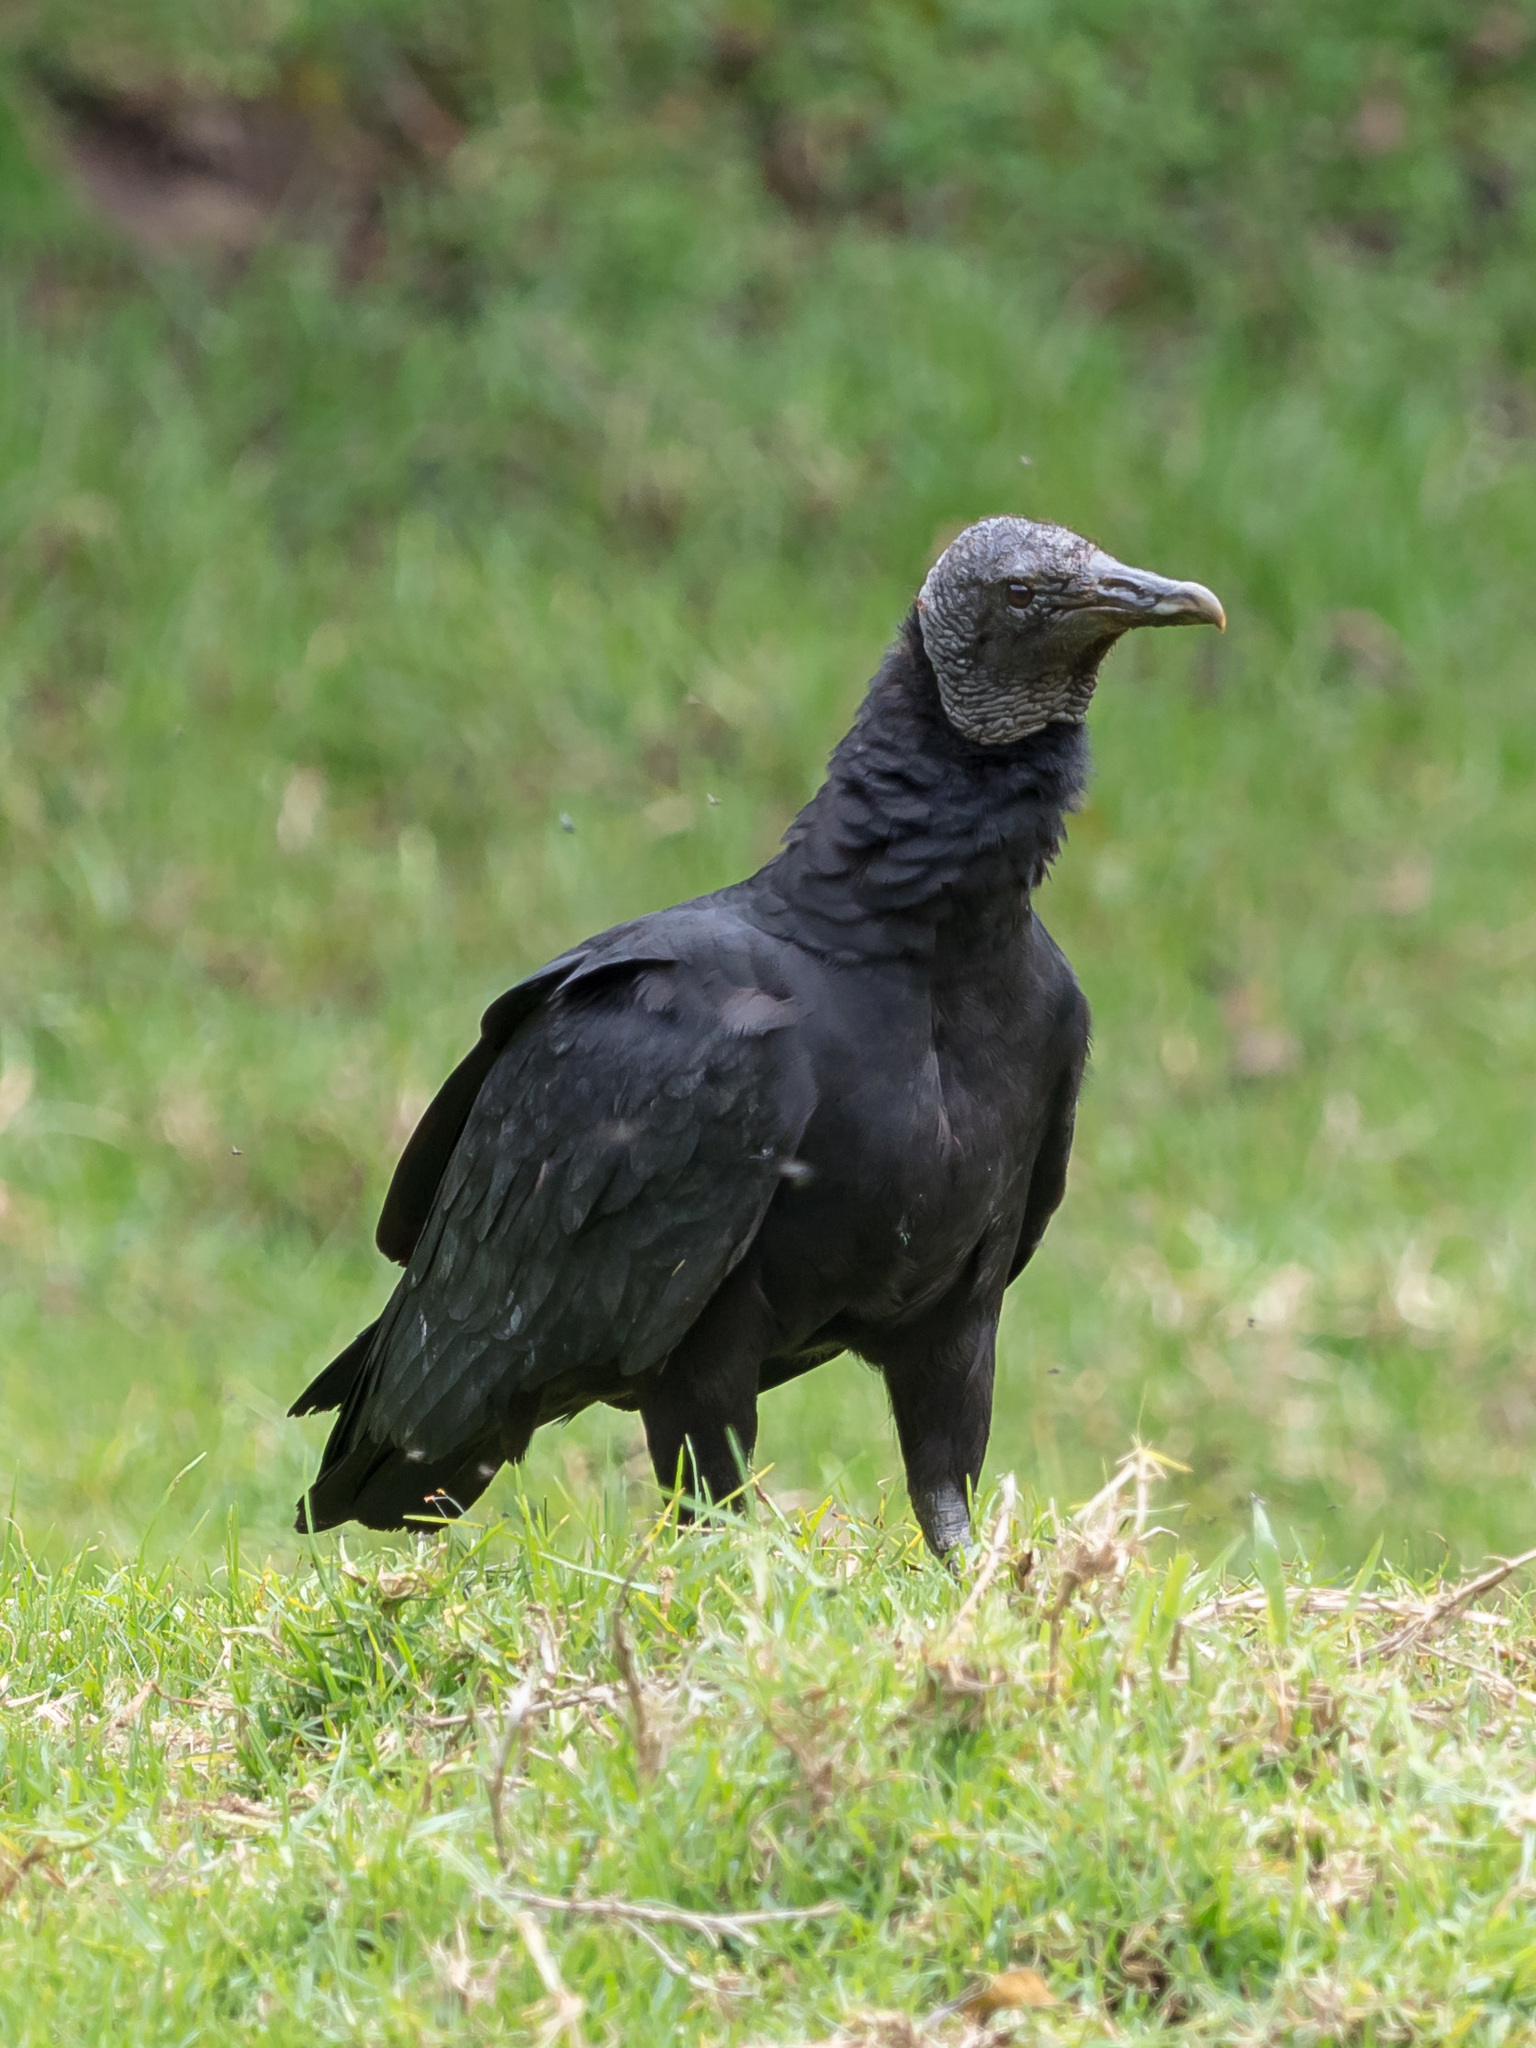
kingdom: Animalia
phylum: Chordata
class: Aves
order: Accipitriformes
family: Cathartidae
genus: Coragyps
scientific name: Coragyps atratus
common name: Black vulture
